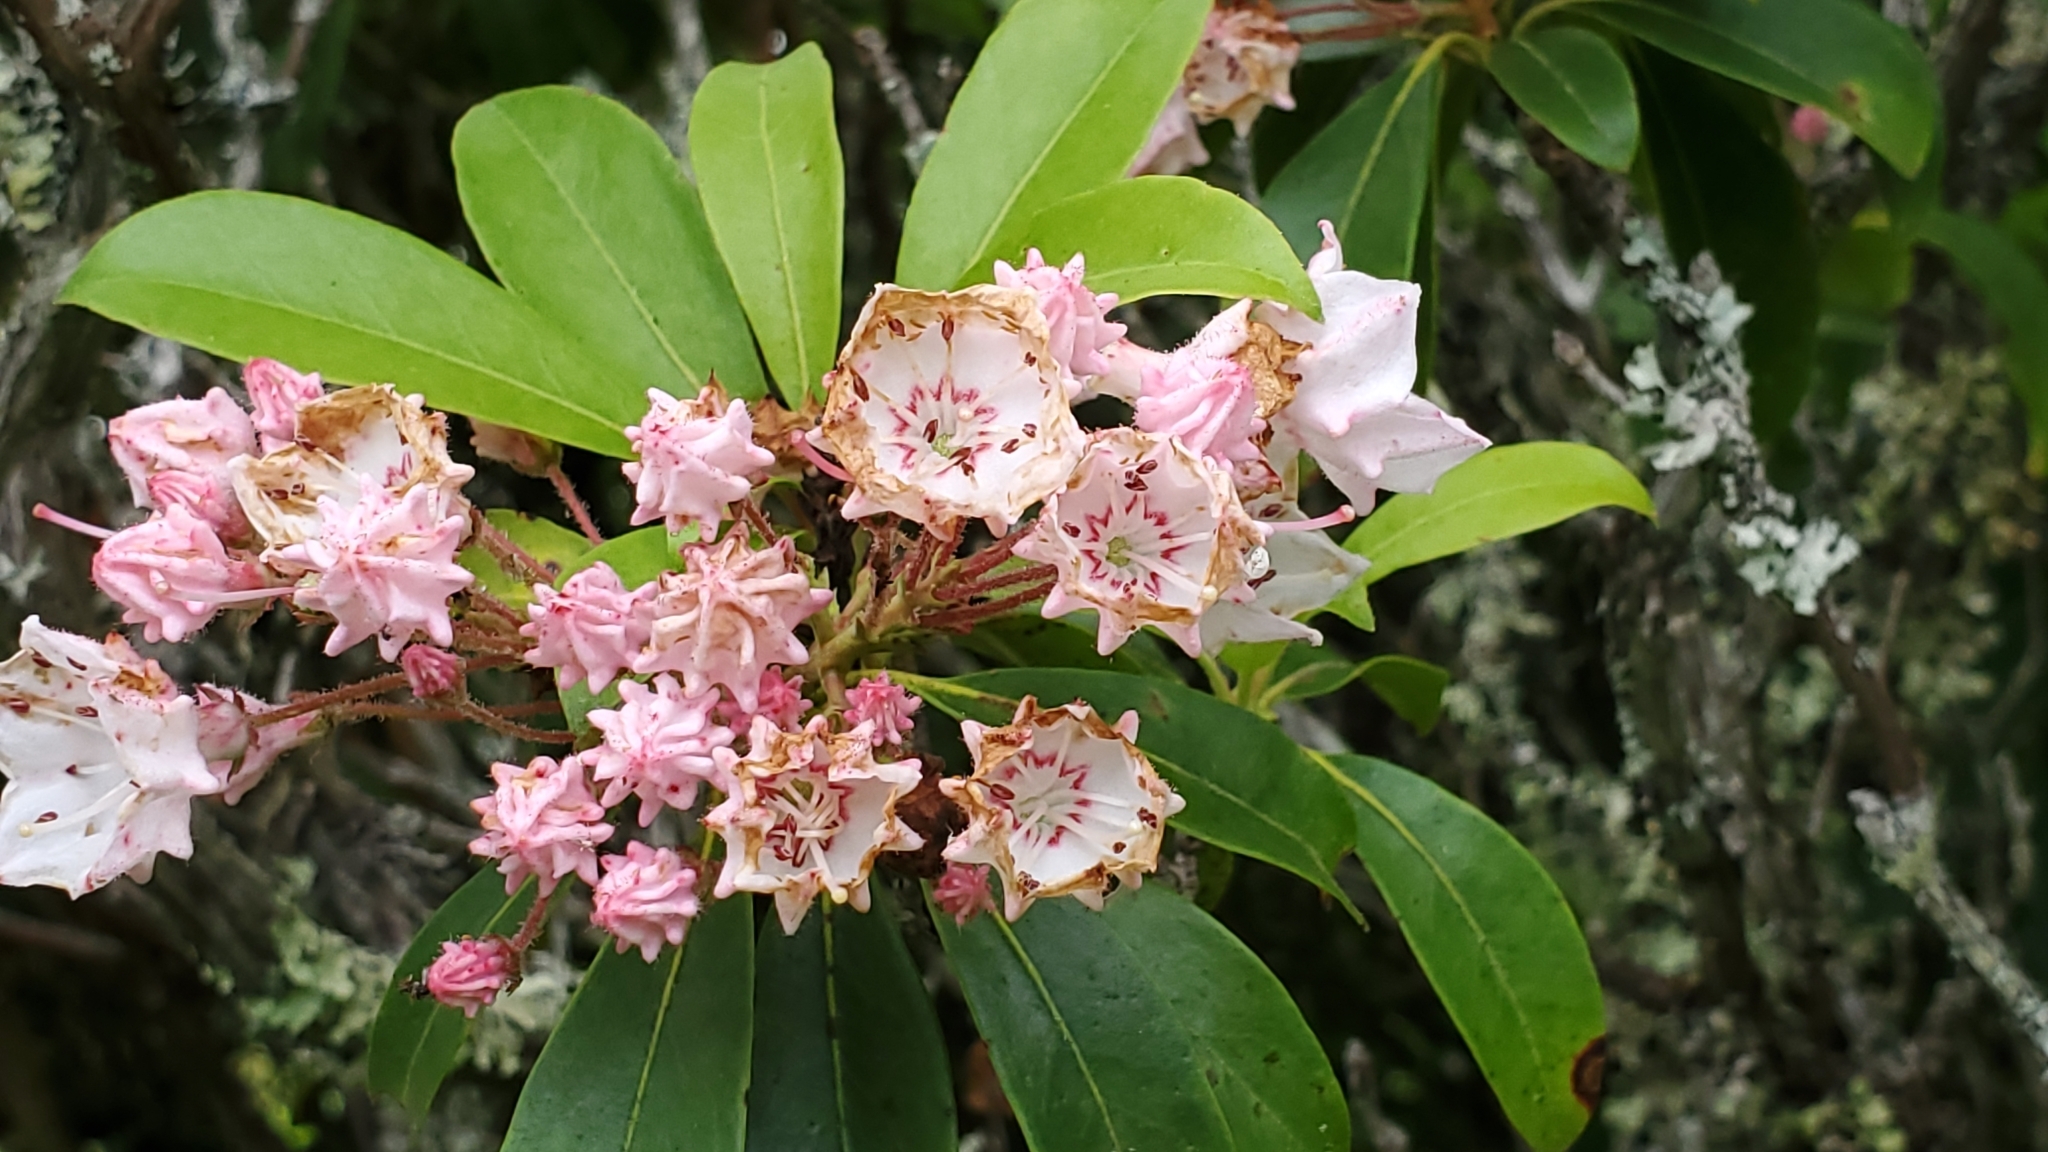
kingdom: Plantae
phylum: Tracheophyta
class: Magnoliopsida
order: Ericales
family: Ericaceae
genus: Kalmia
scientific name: Kalmia latifolia
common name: Mountain-laurel
